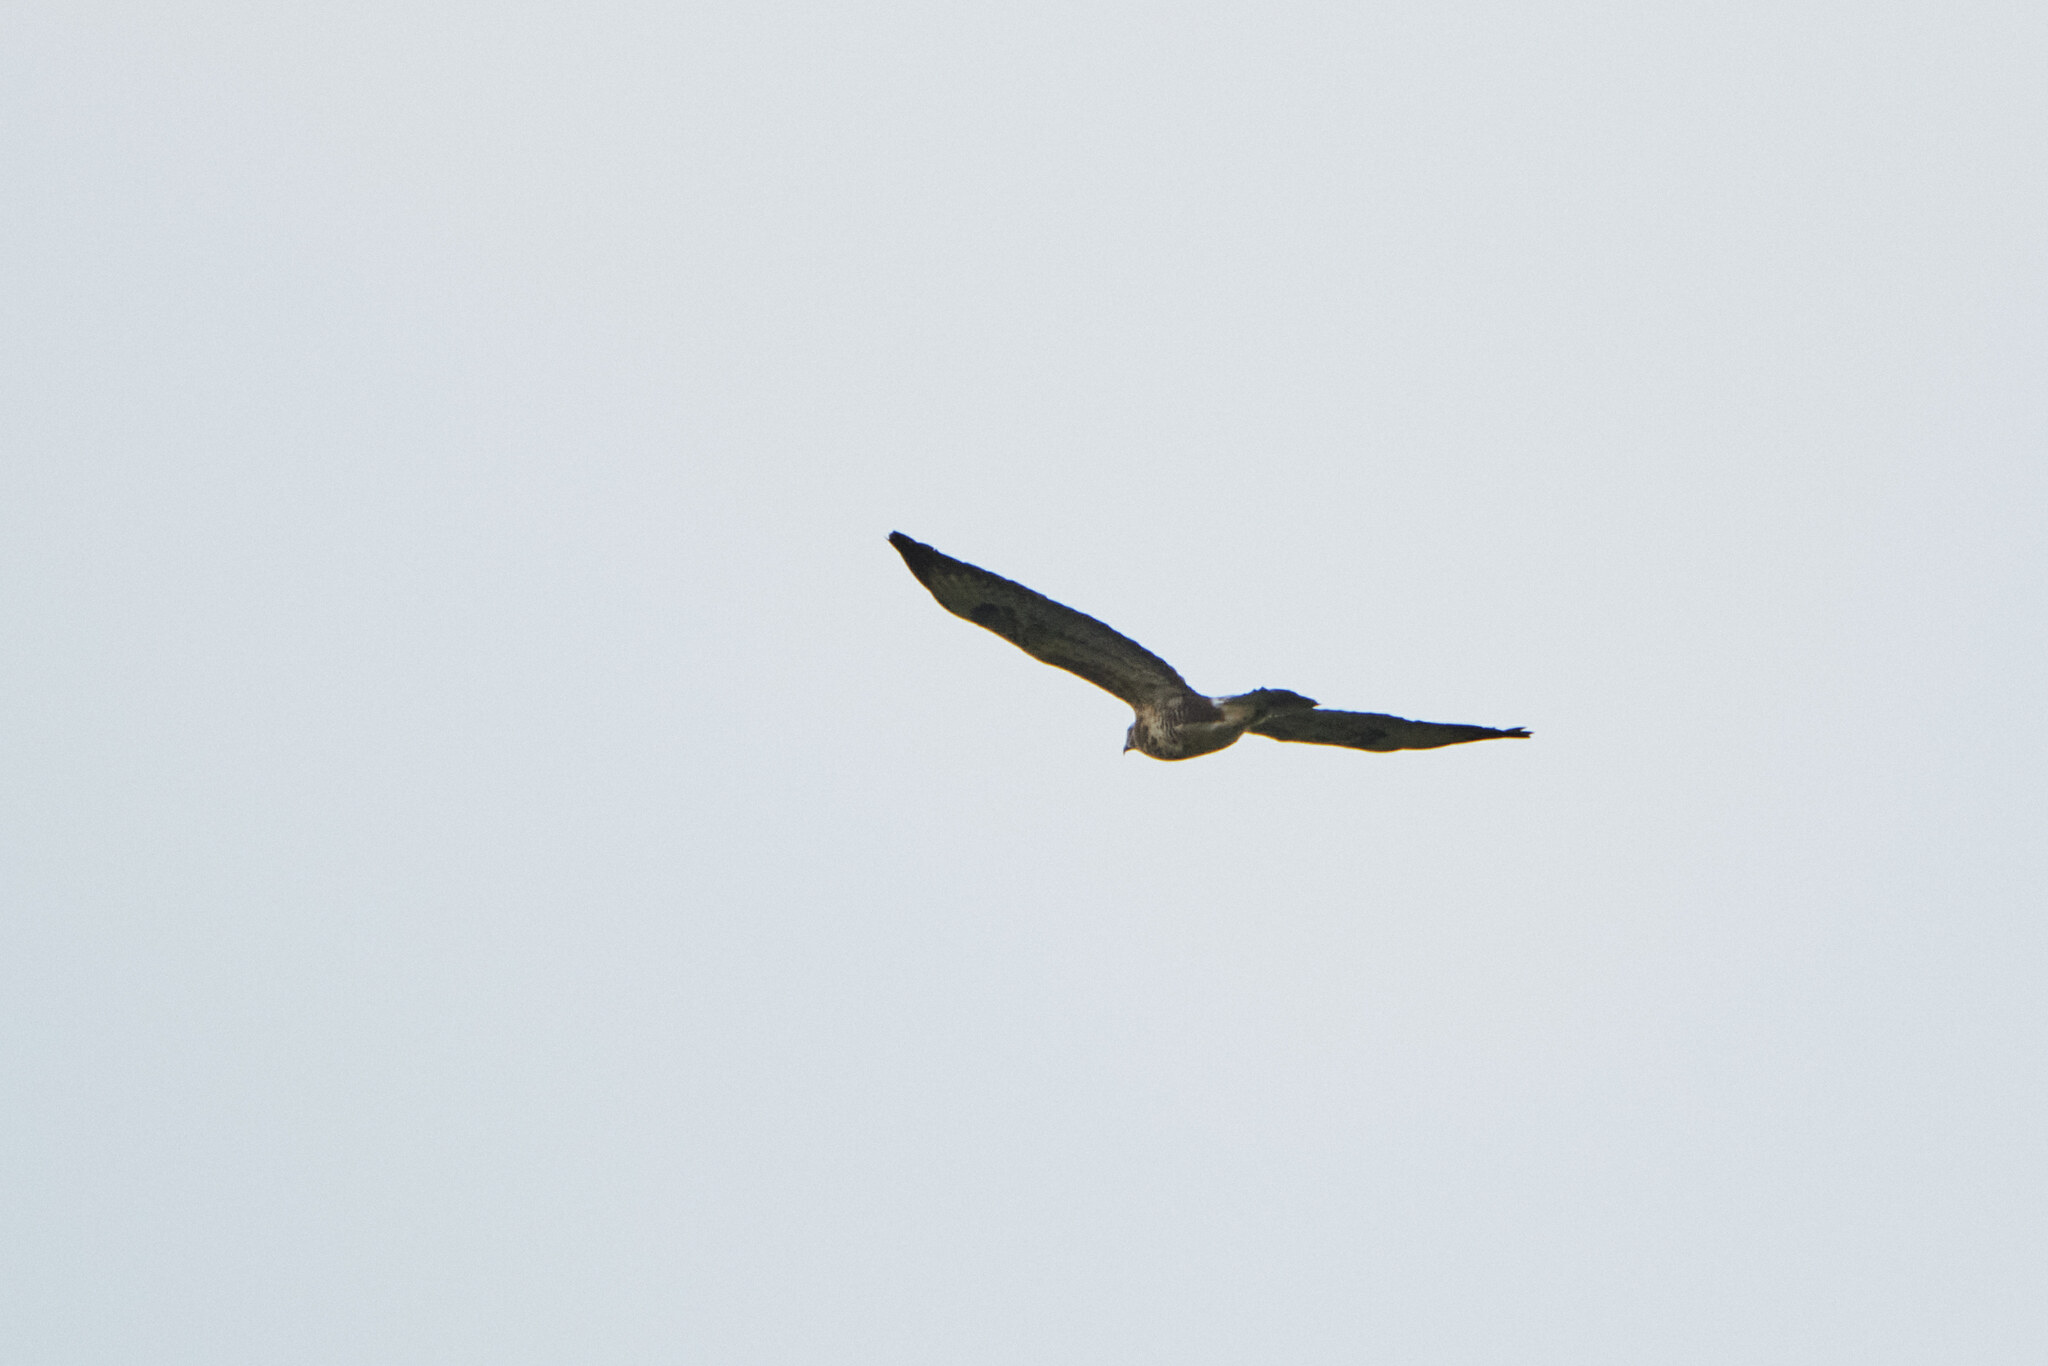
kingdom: Animalia
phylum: Chordata
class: Aves
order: Accipitriformes
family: Accipitridae
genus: Buteo
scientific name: Buteo buteo
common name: Common buzzard
